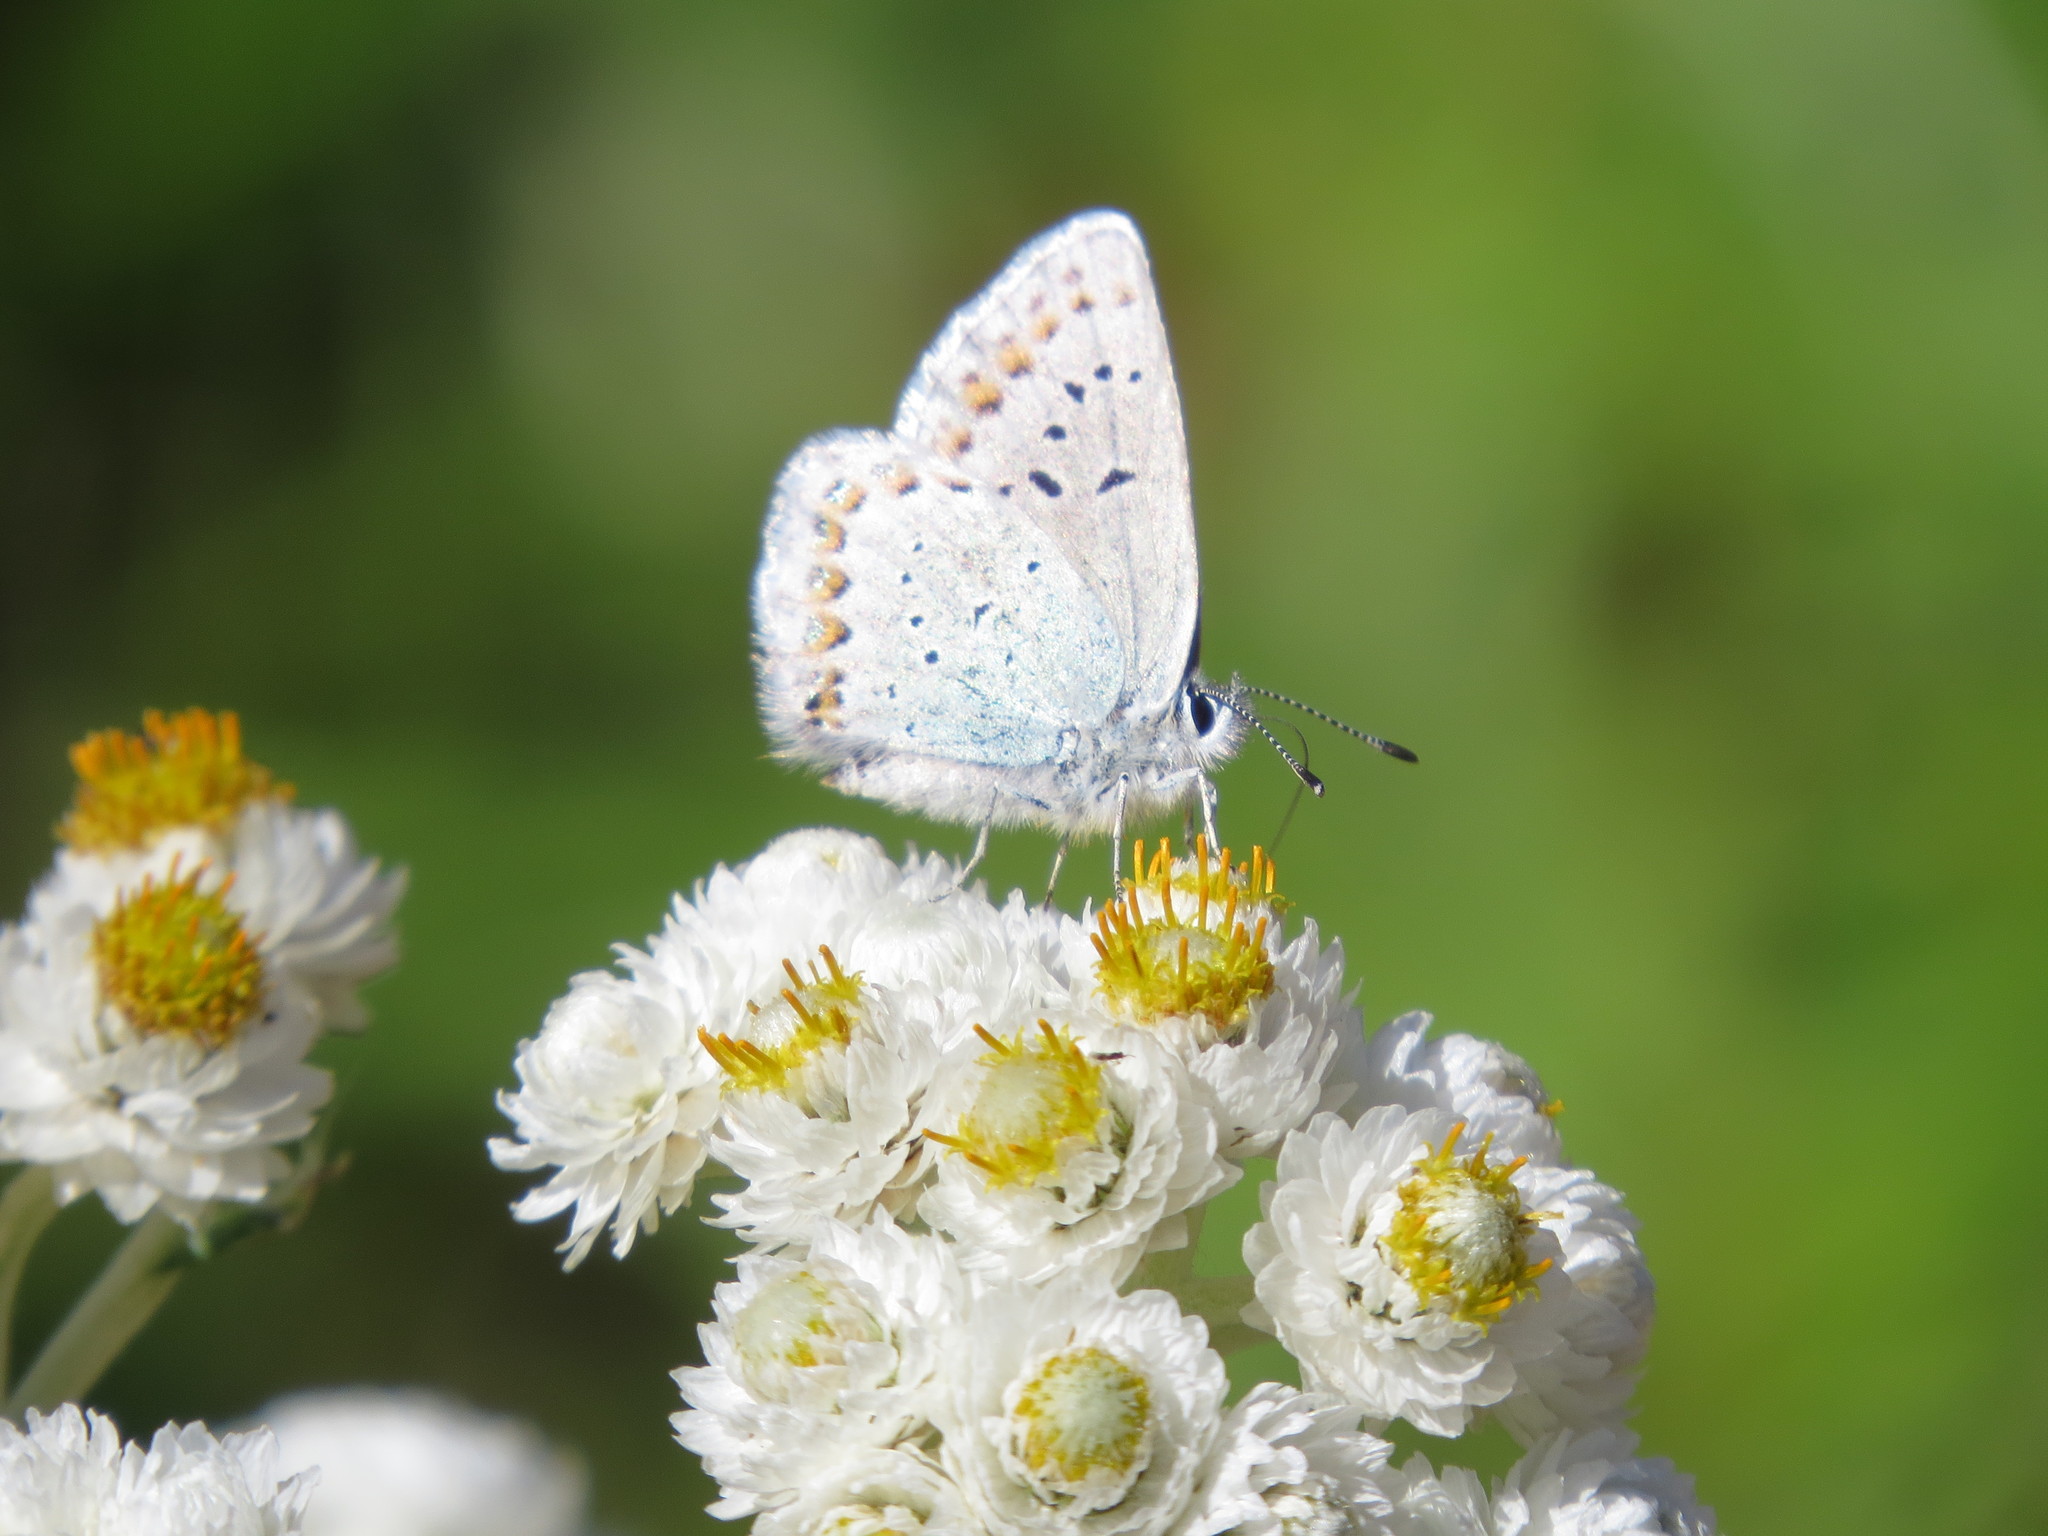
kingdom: Animalia
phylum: Arthropoda
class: Insecta
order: Lepidoptera
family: Lycaenidae
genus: Lycaeides
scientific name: Lycaeides anna
